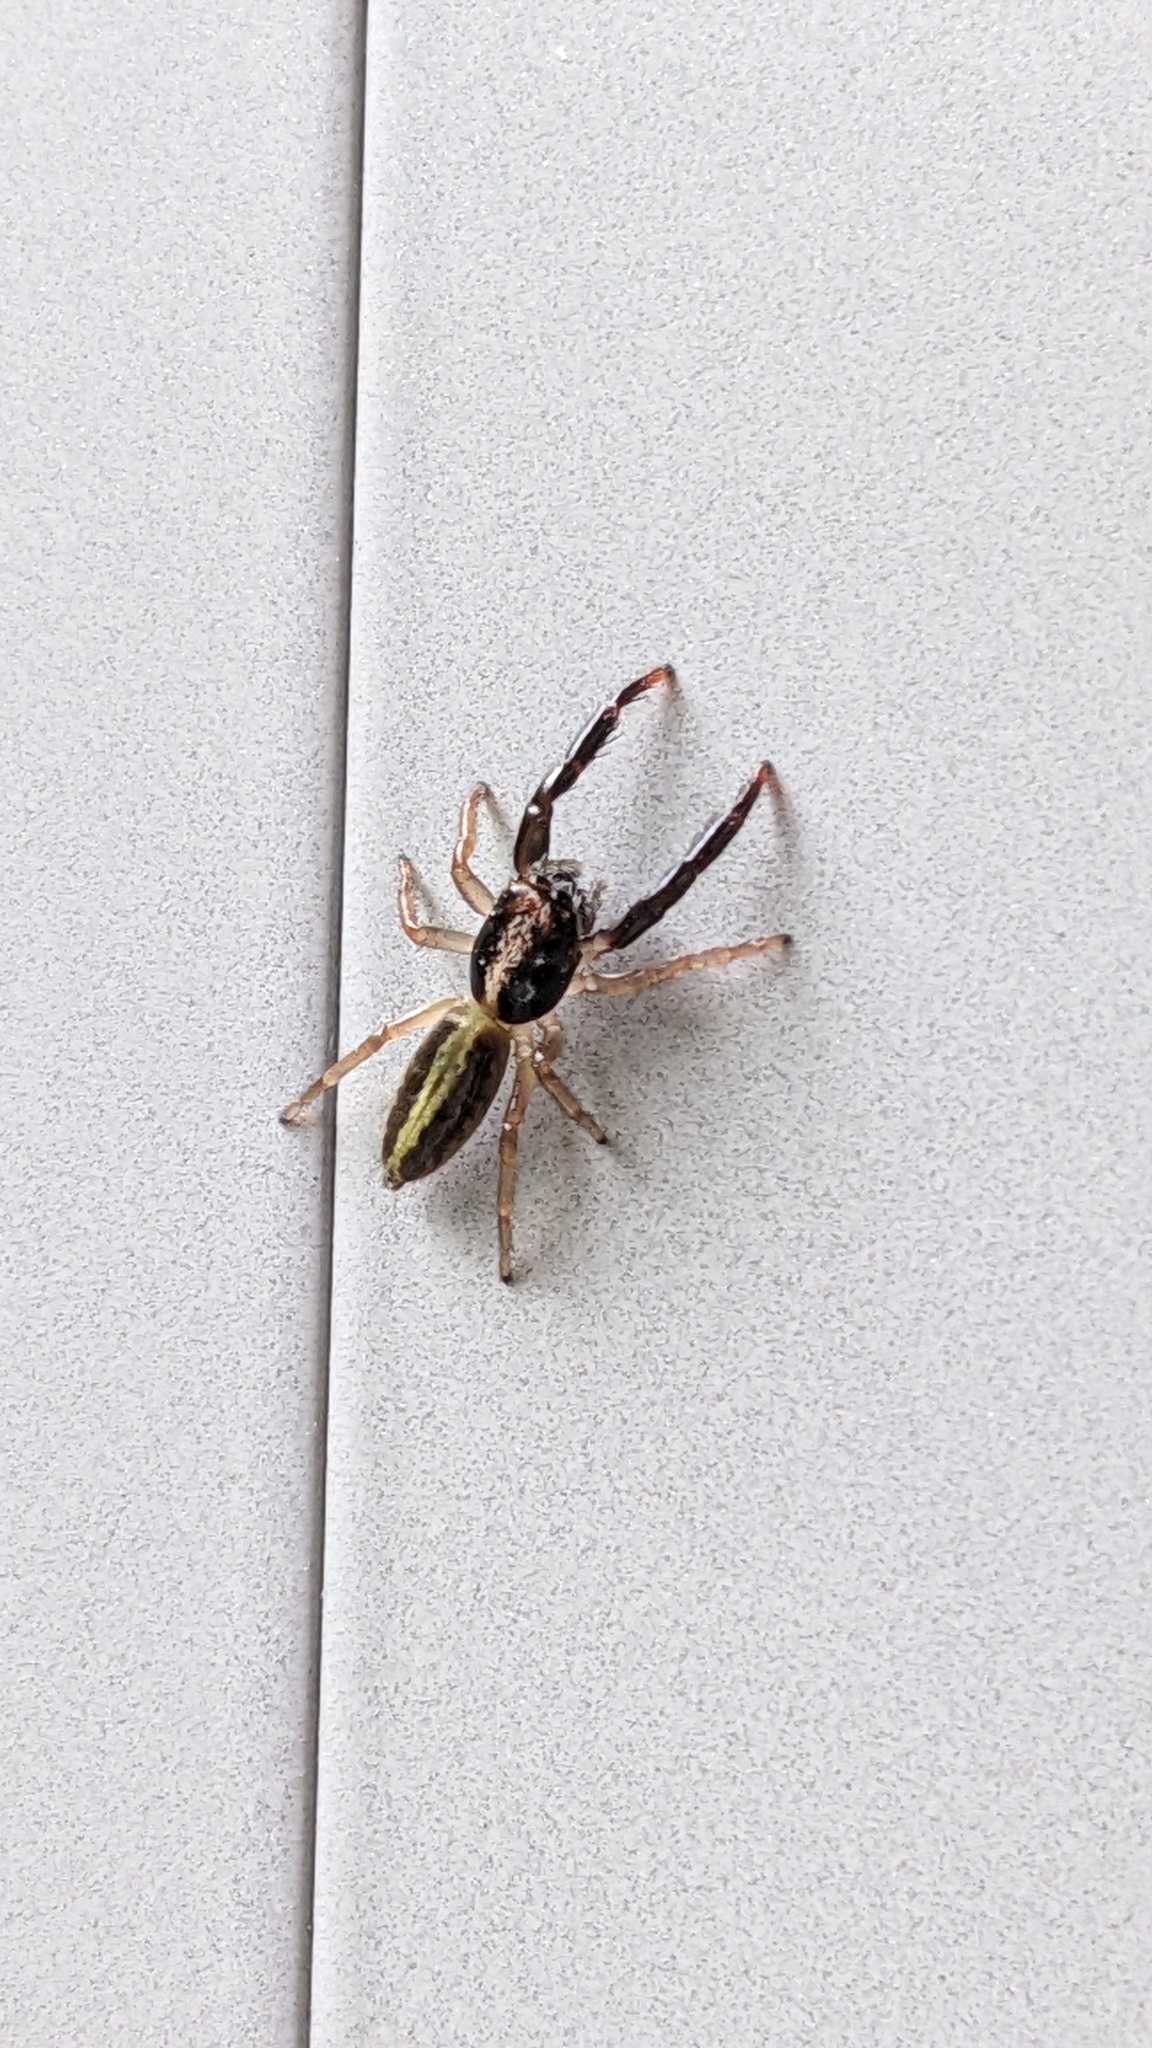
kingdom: Animalia
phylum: Arthropoda
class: Arachnida
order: Araneae
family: Salticidae
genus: Trite
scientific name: Trite planiceps
